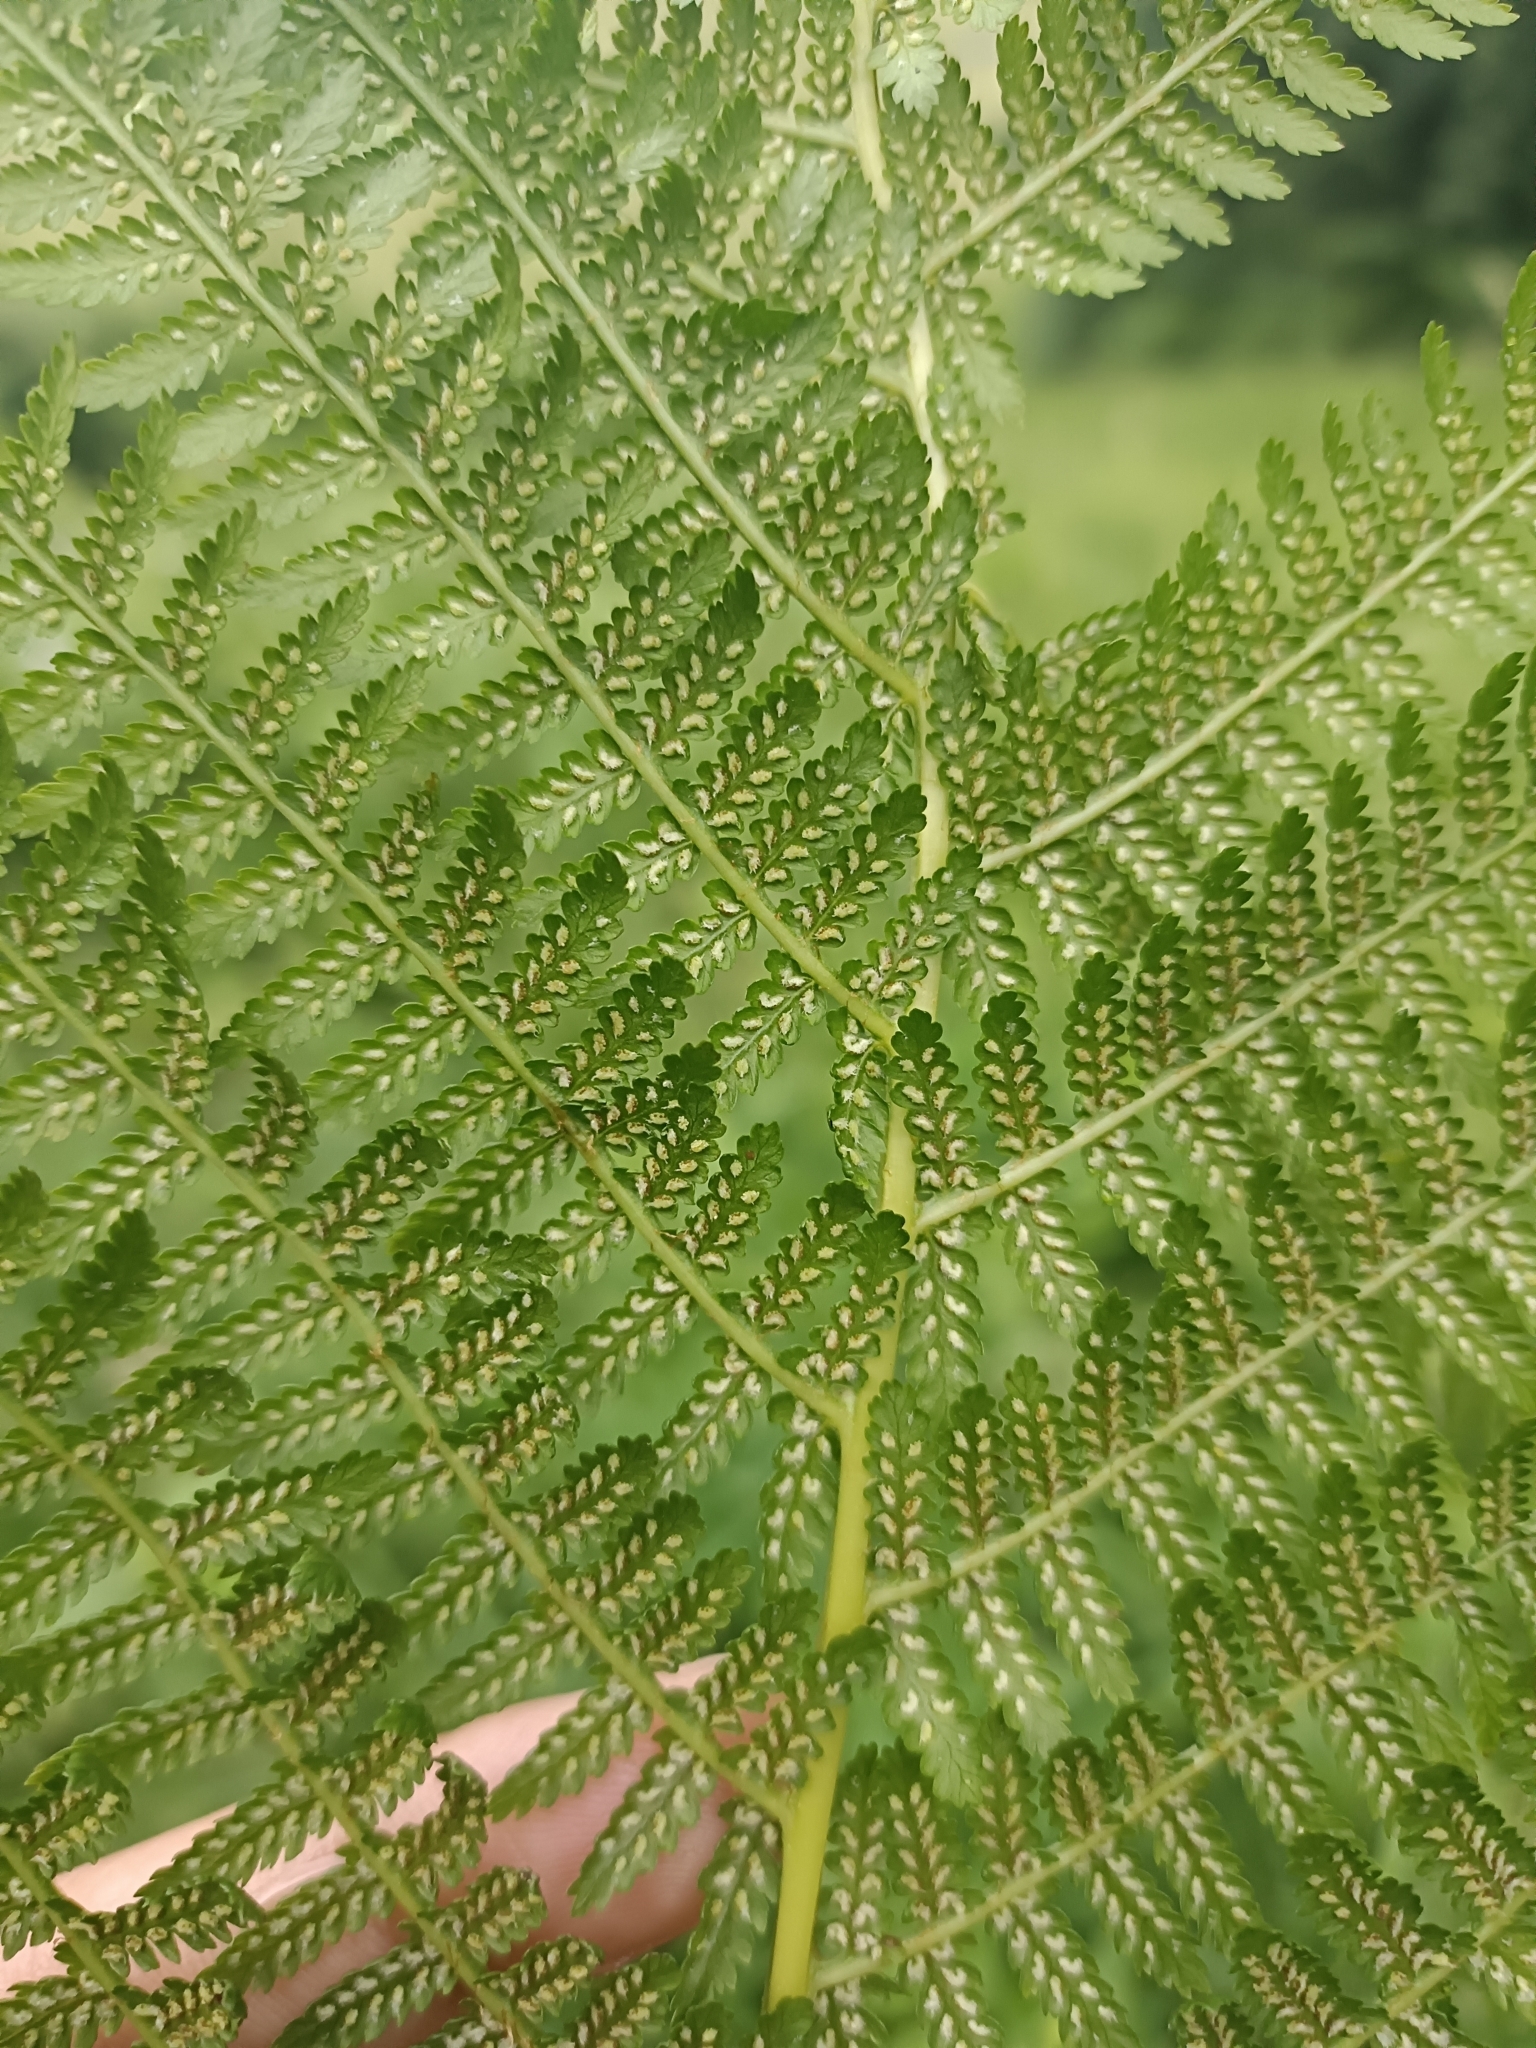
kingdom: Plantae
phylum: Tracheophyta
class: Polypodiopsida
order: Polypodiales
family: Athyriaceae
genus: Athyrium
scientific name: Athyrium filix-femina
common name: Lady fern
